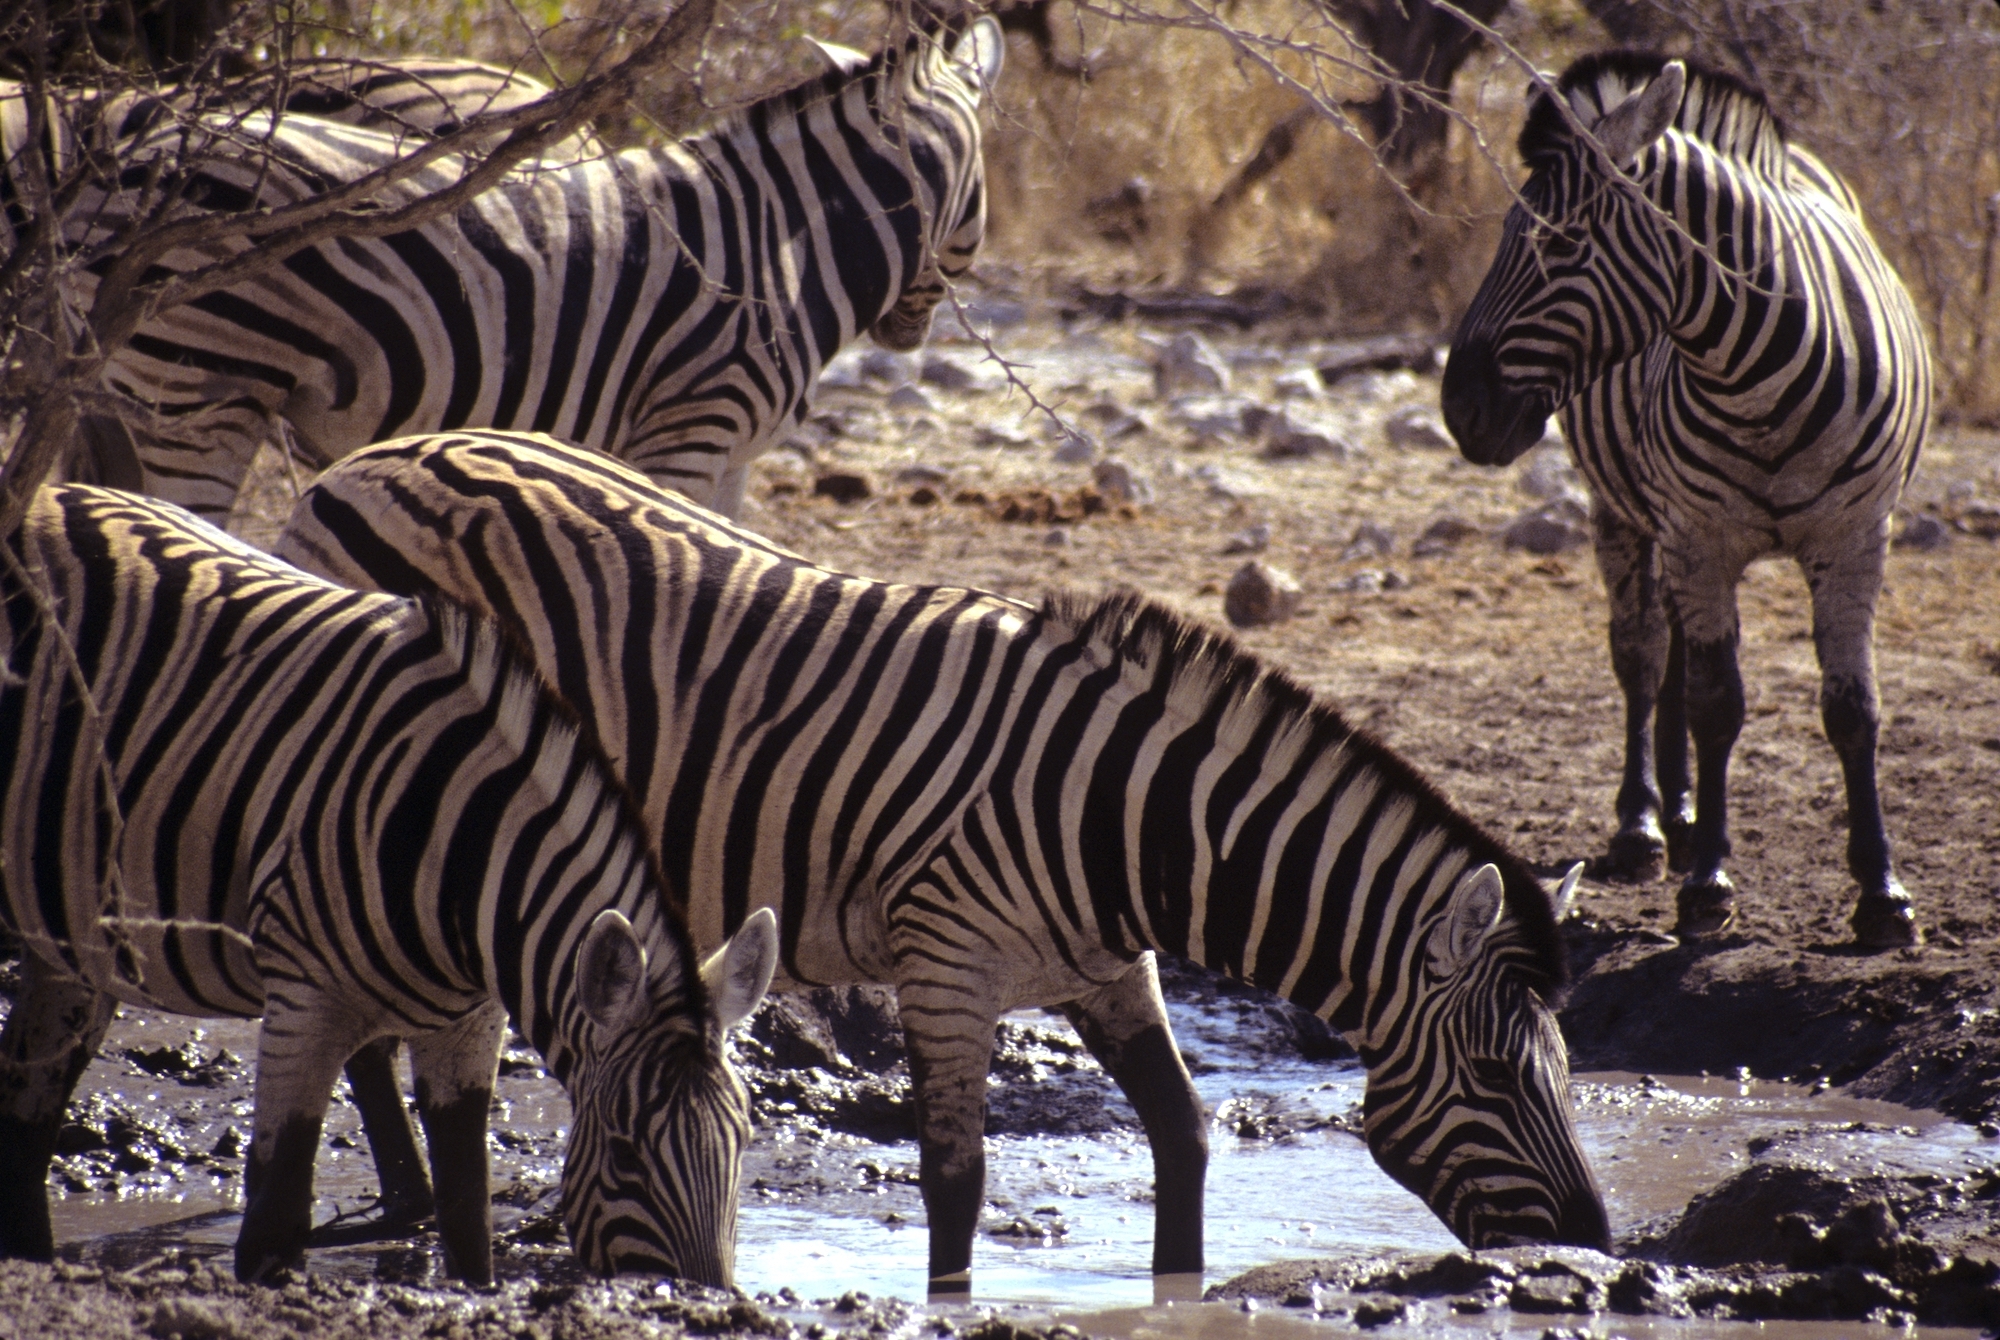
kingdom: Animalia
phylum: Chordata
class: Mammalia
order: Perissodactyla
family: Equidae
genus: Equus
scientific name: Equus quagga
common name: Plains zebra
